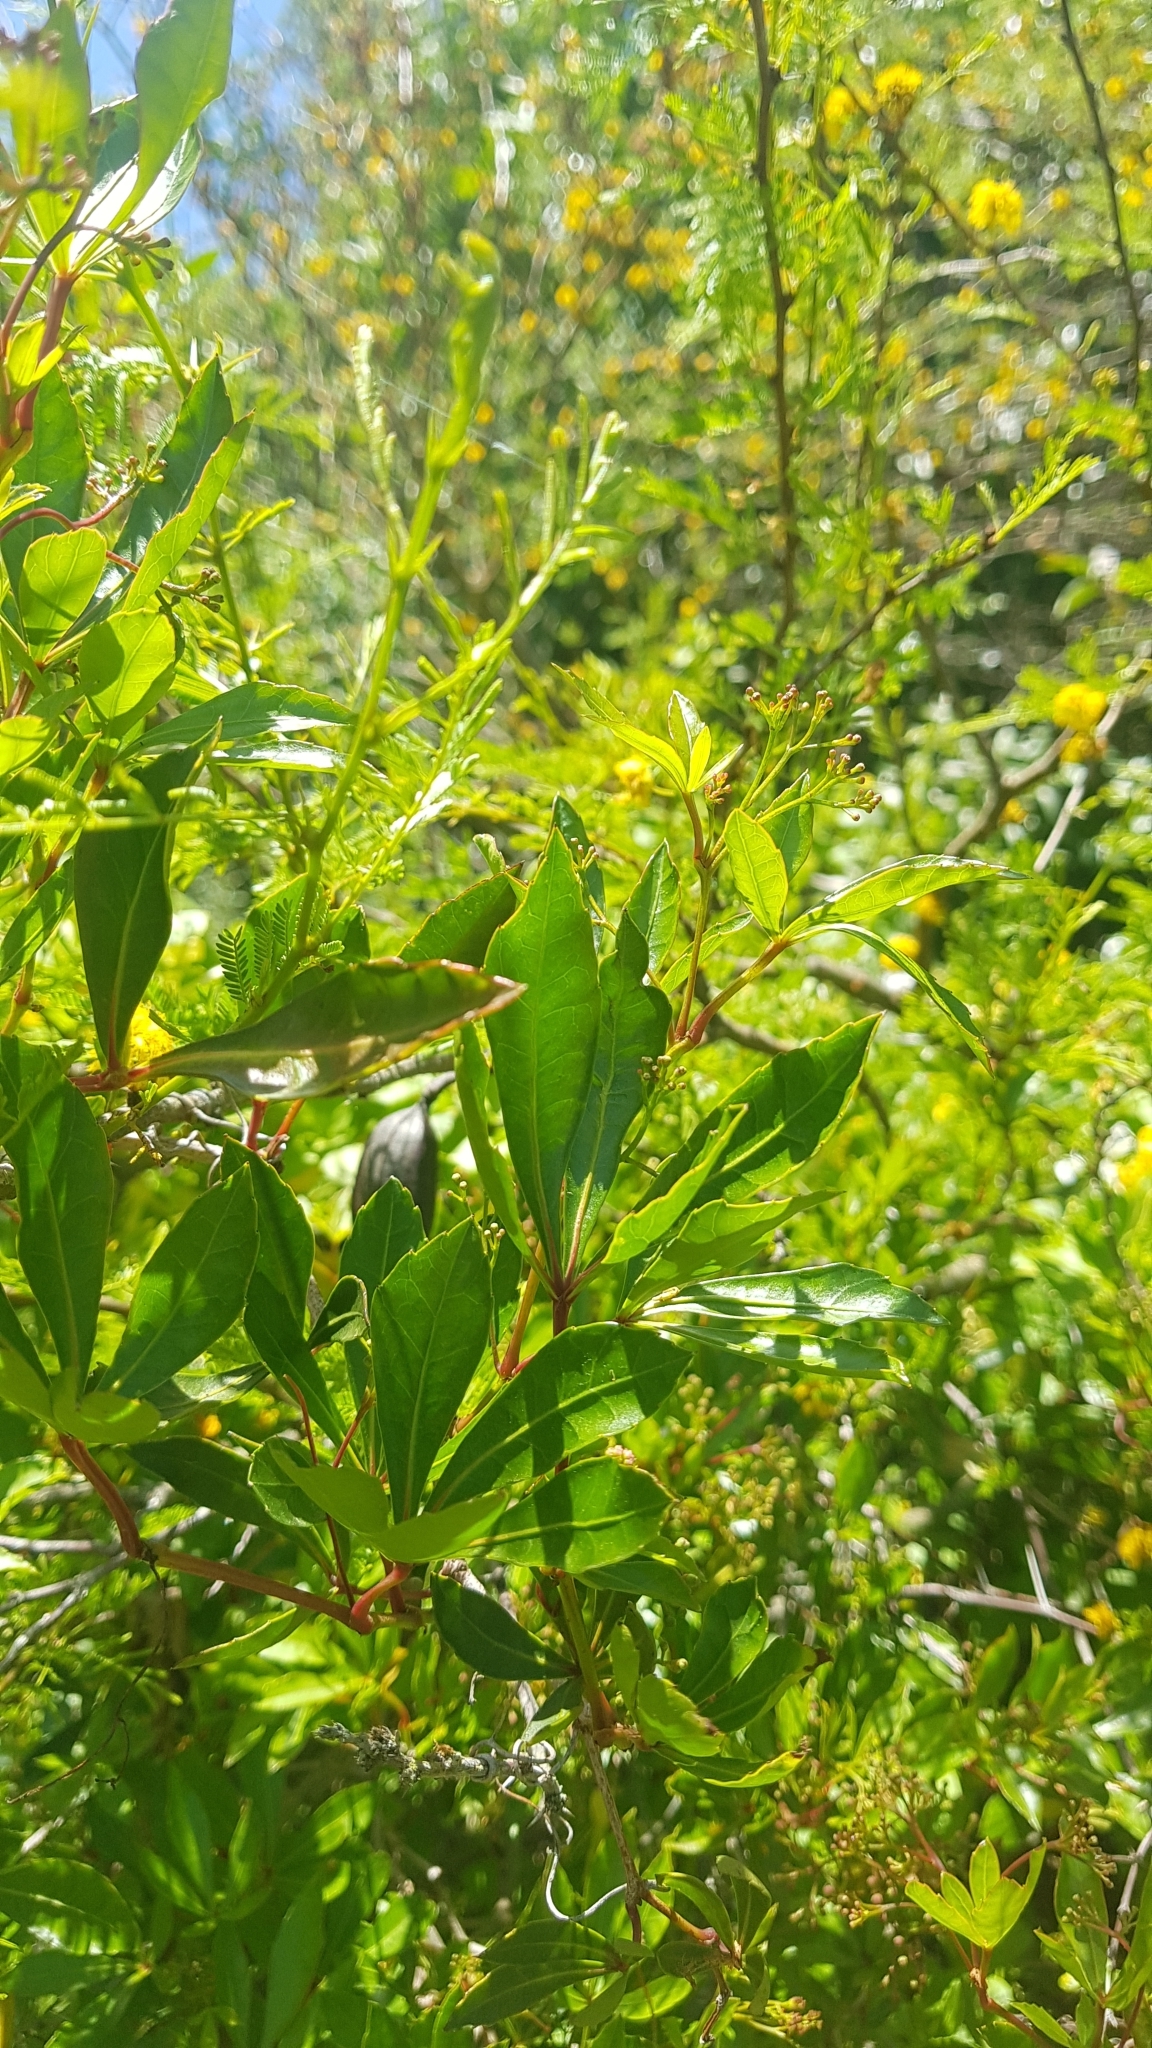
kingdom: Plantae
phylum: Tracheophyta
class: Magnoliopsida
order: Vitales
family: Vitaceae
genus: Clematicissus
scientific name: Clematicissus striata
